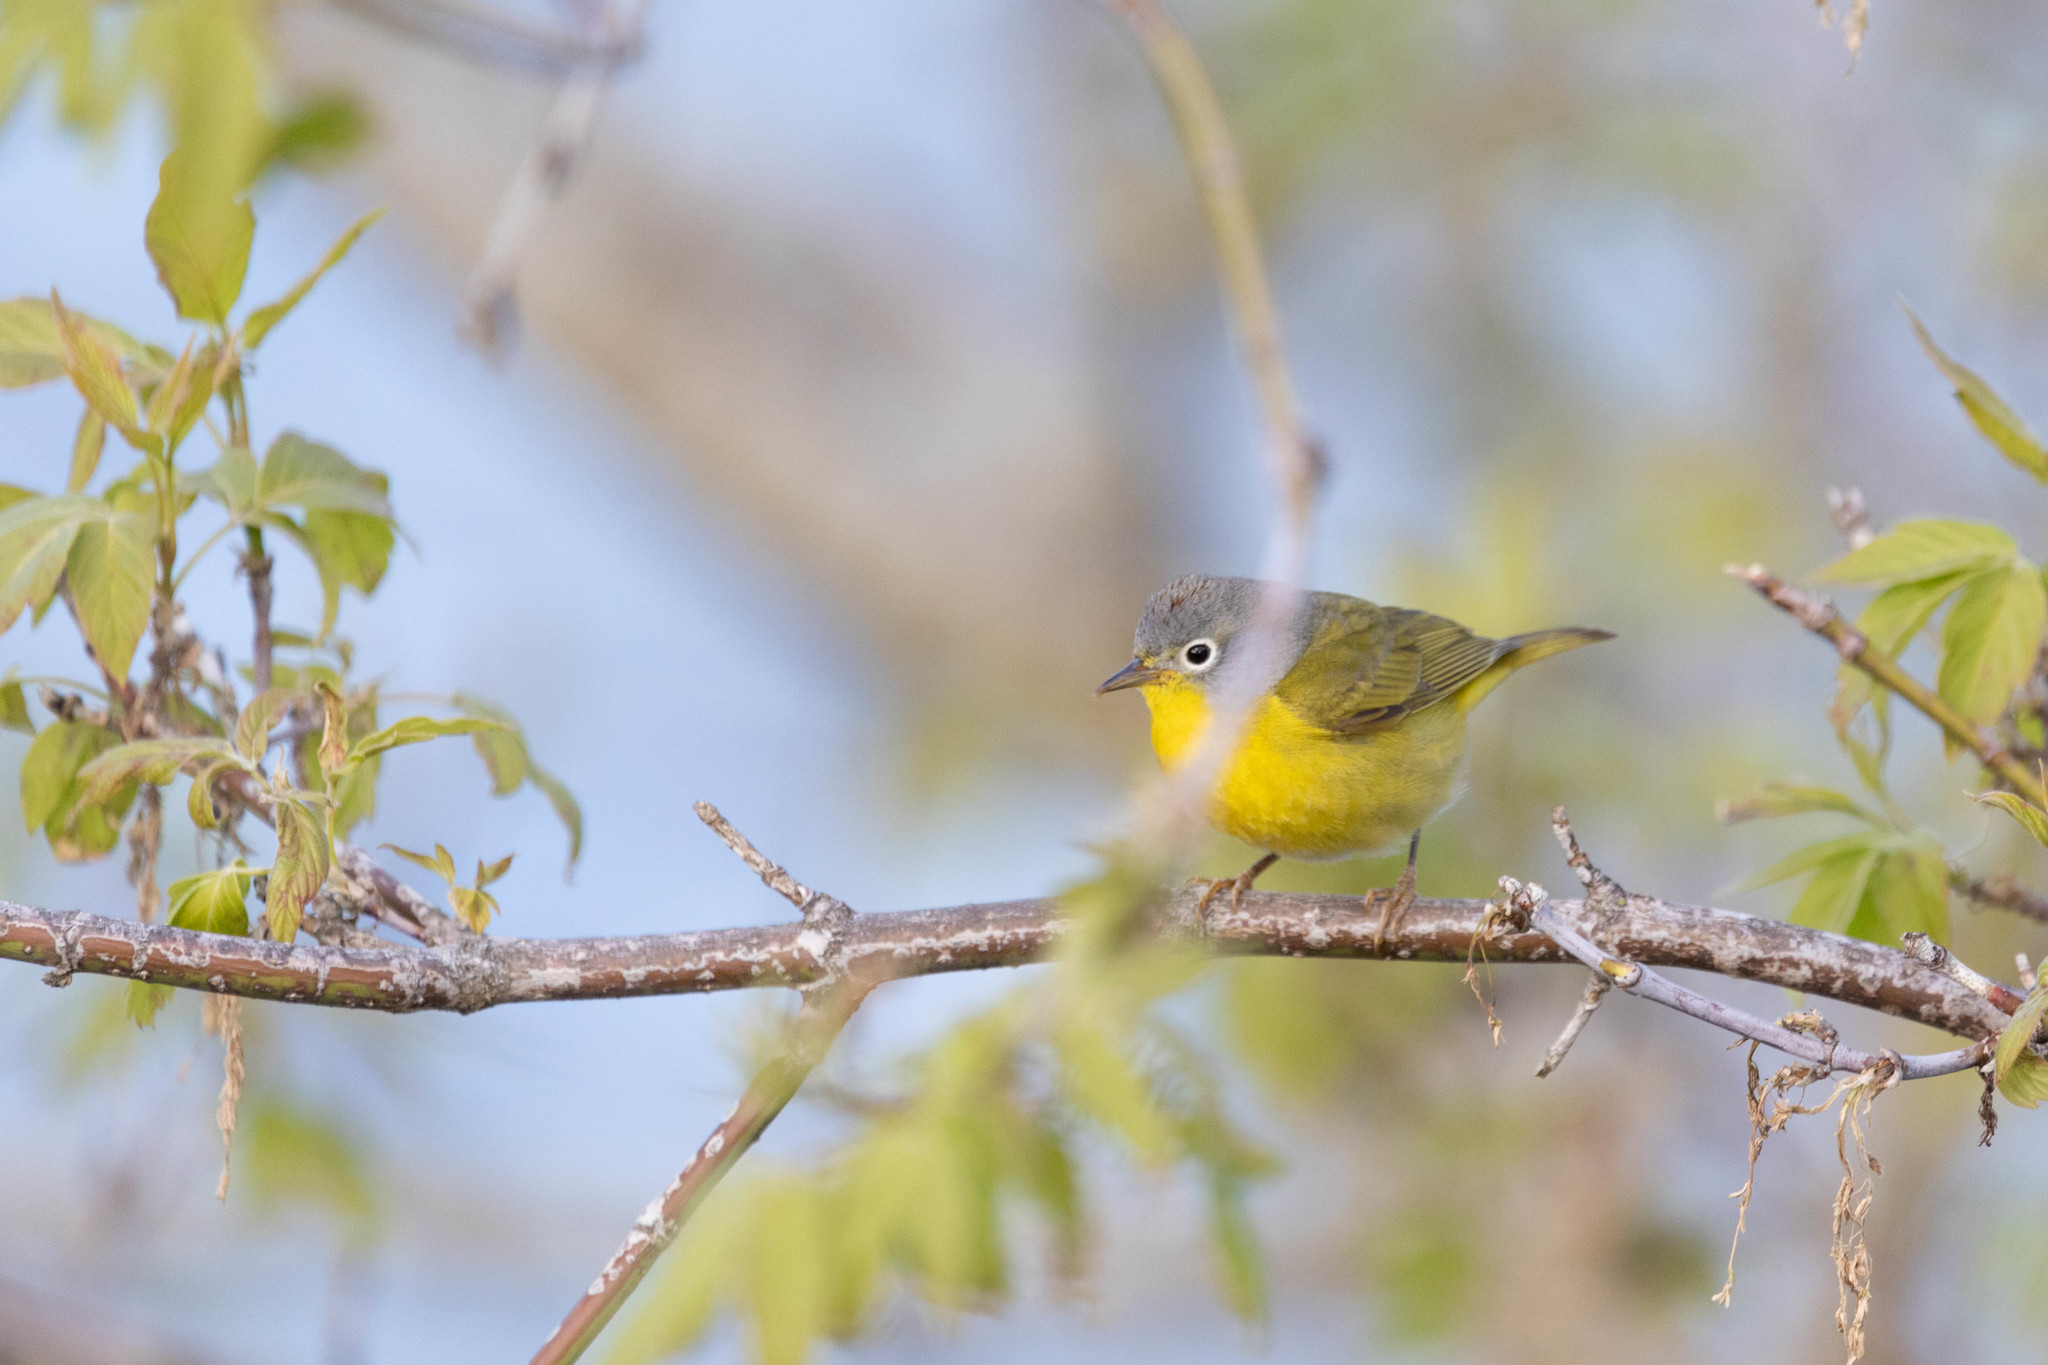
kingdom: Animalia
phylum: Chordata
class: Aves
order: Passeriformes
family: Parulidae
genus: Leiothlypis
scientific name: Leiothlypis ruficapilla
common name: Nashville warbler
